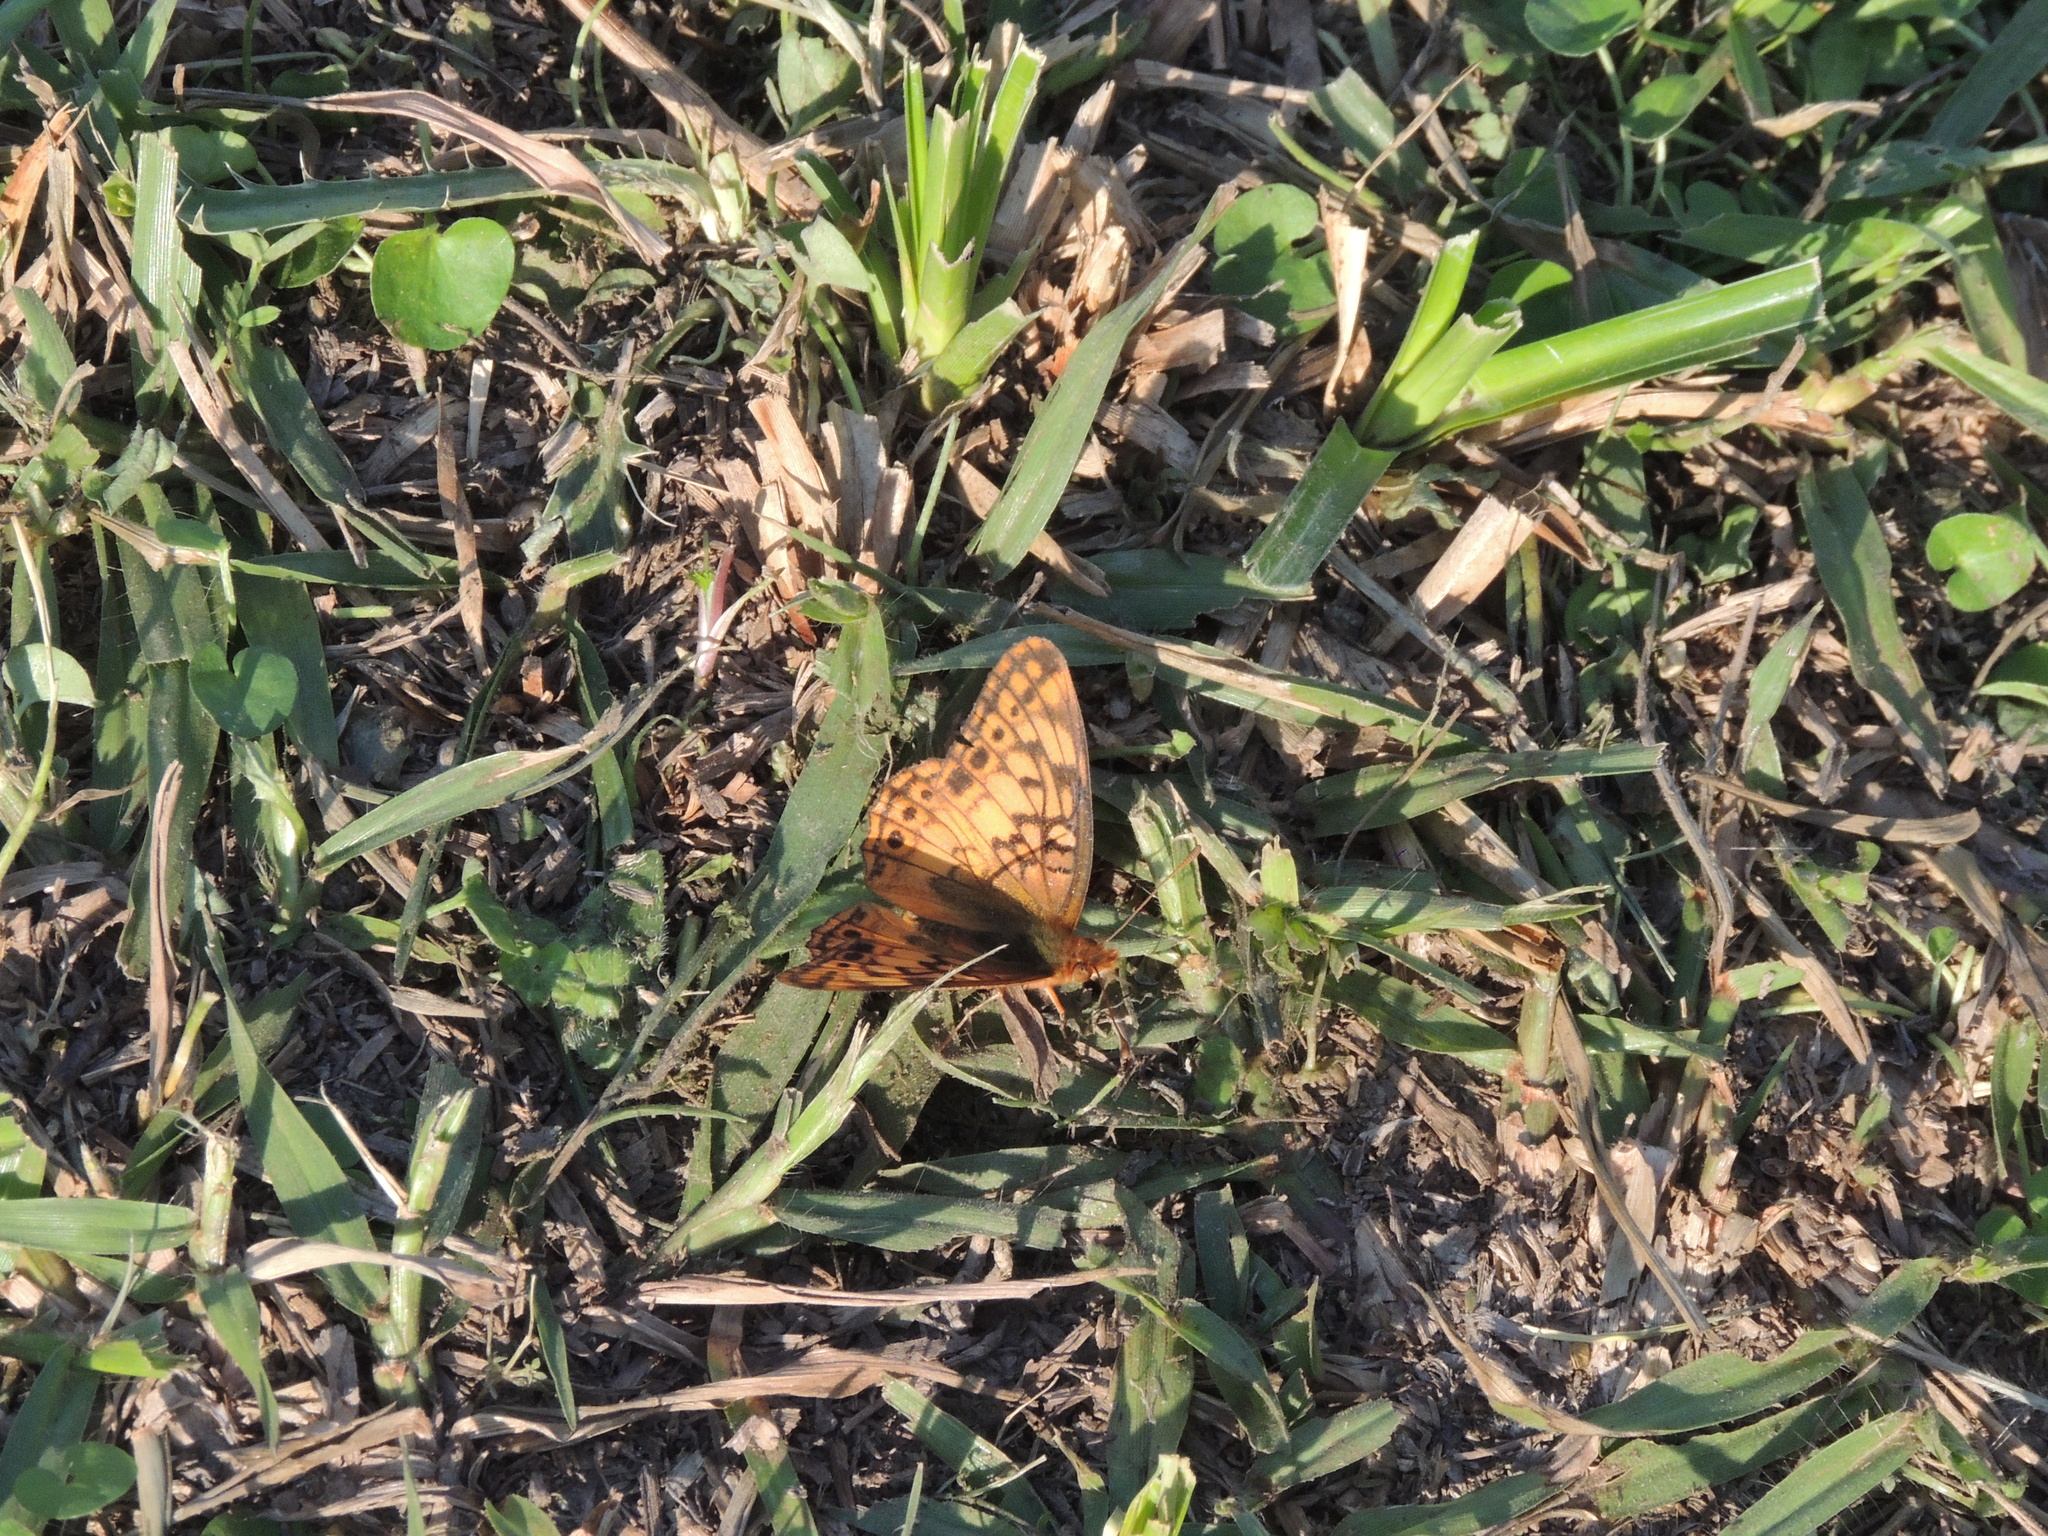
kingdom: Animalia
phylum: Arthropoda
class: Insecta
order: Lepidoptera
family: Nymphalidae
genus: Euptoieta
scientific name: Euptoieta hortensia
